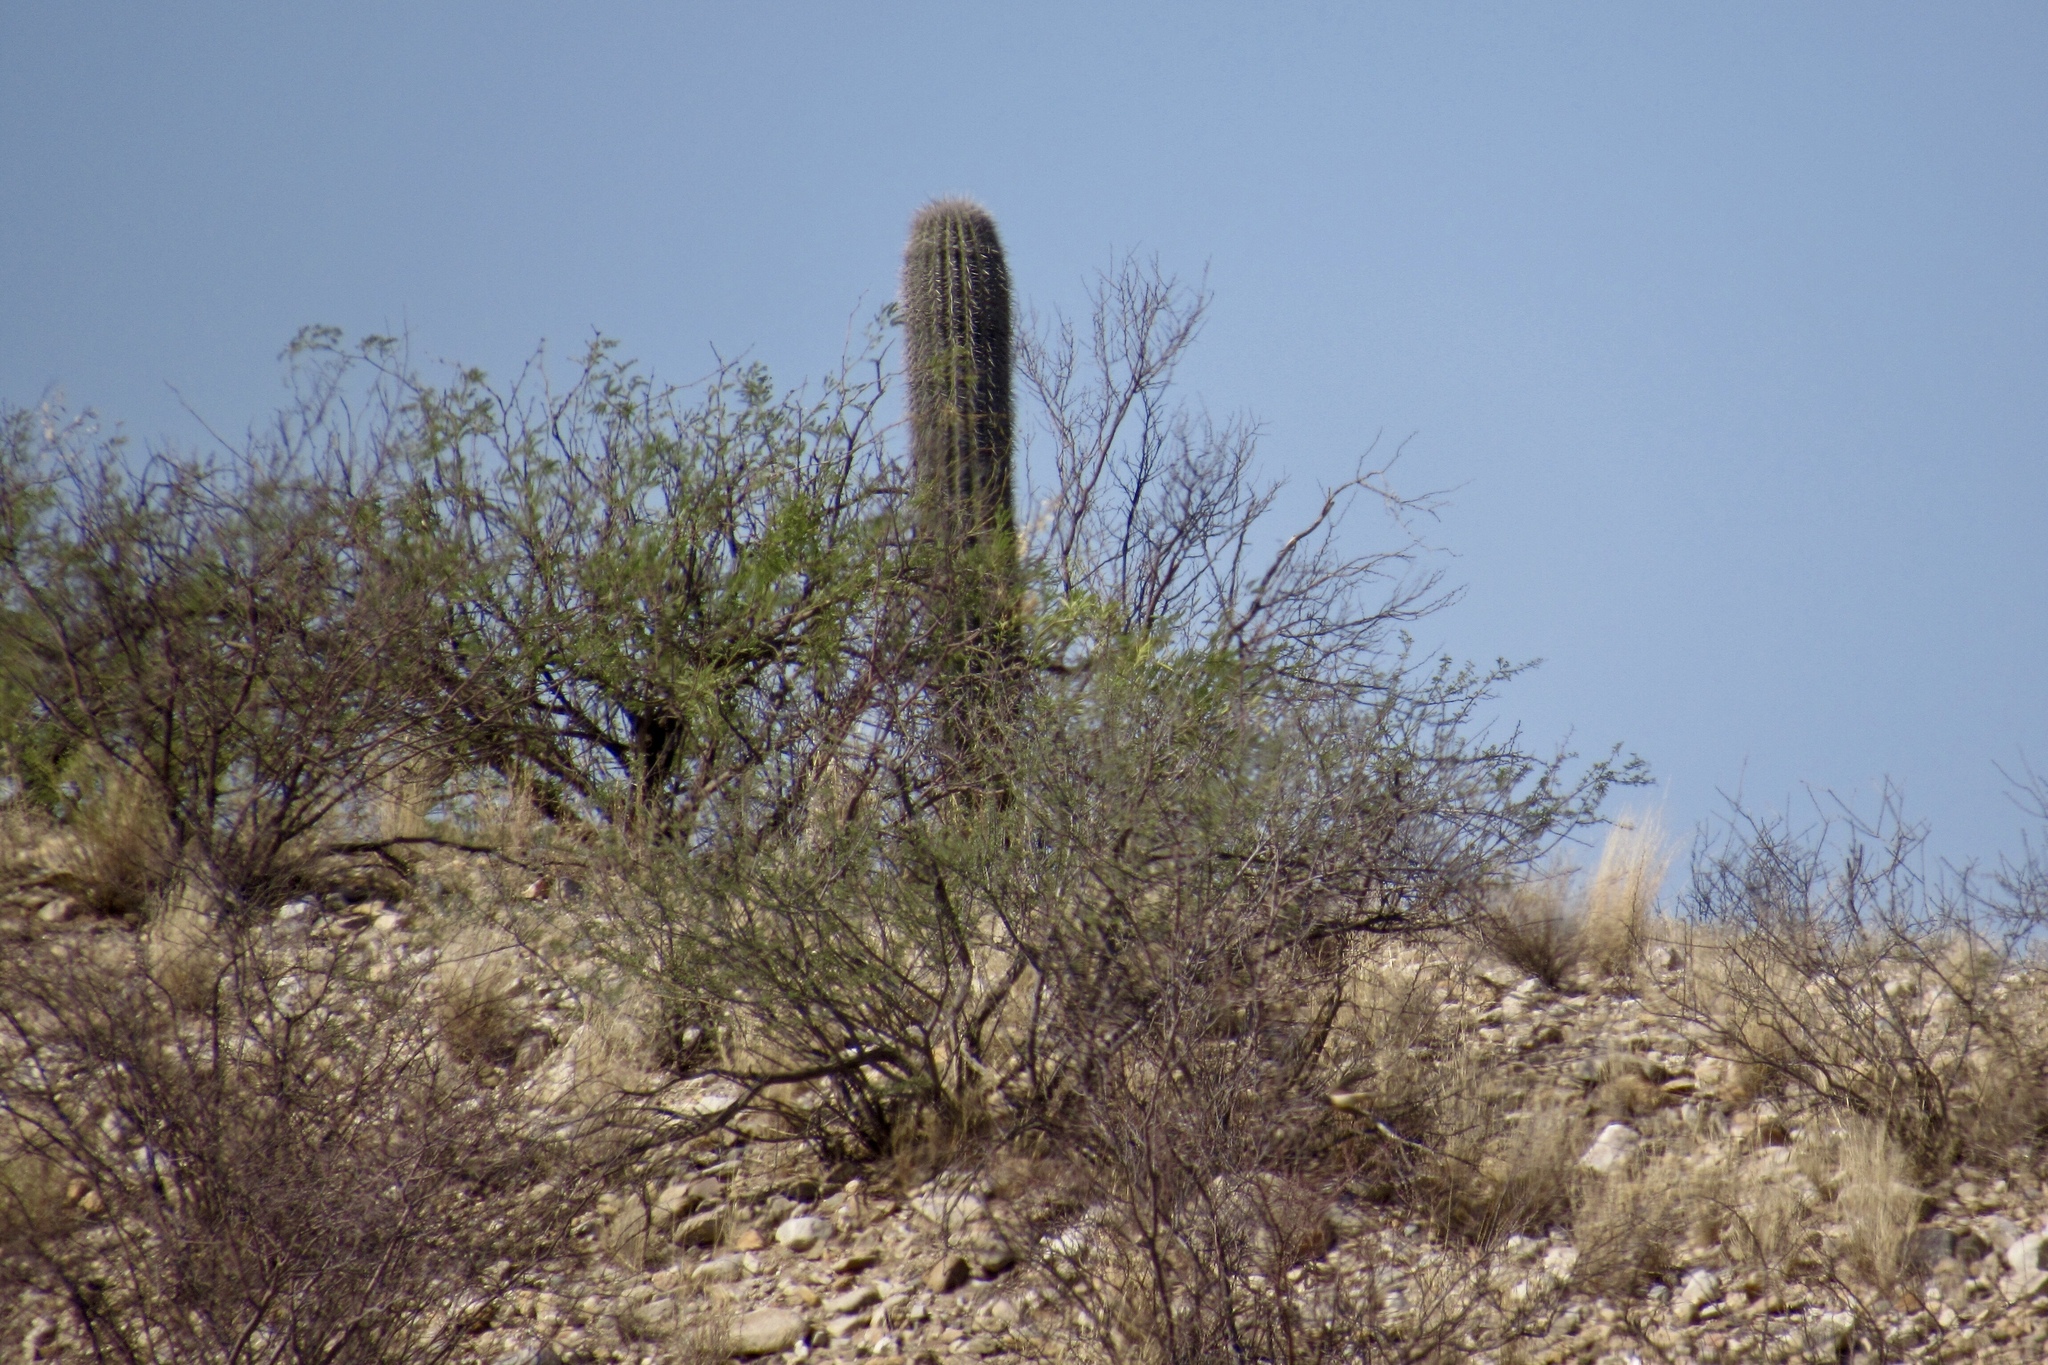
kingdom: Plantae
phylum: Tracheophyta
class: Magnoliopsida
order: Caryophyllales
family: Cactaceae
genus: Carnegiea
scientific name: Carnegiea gigantea
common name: Saguaro
